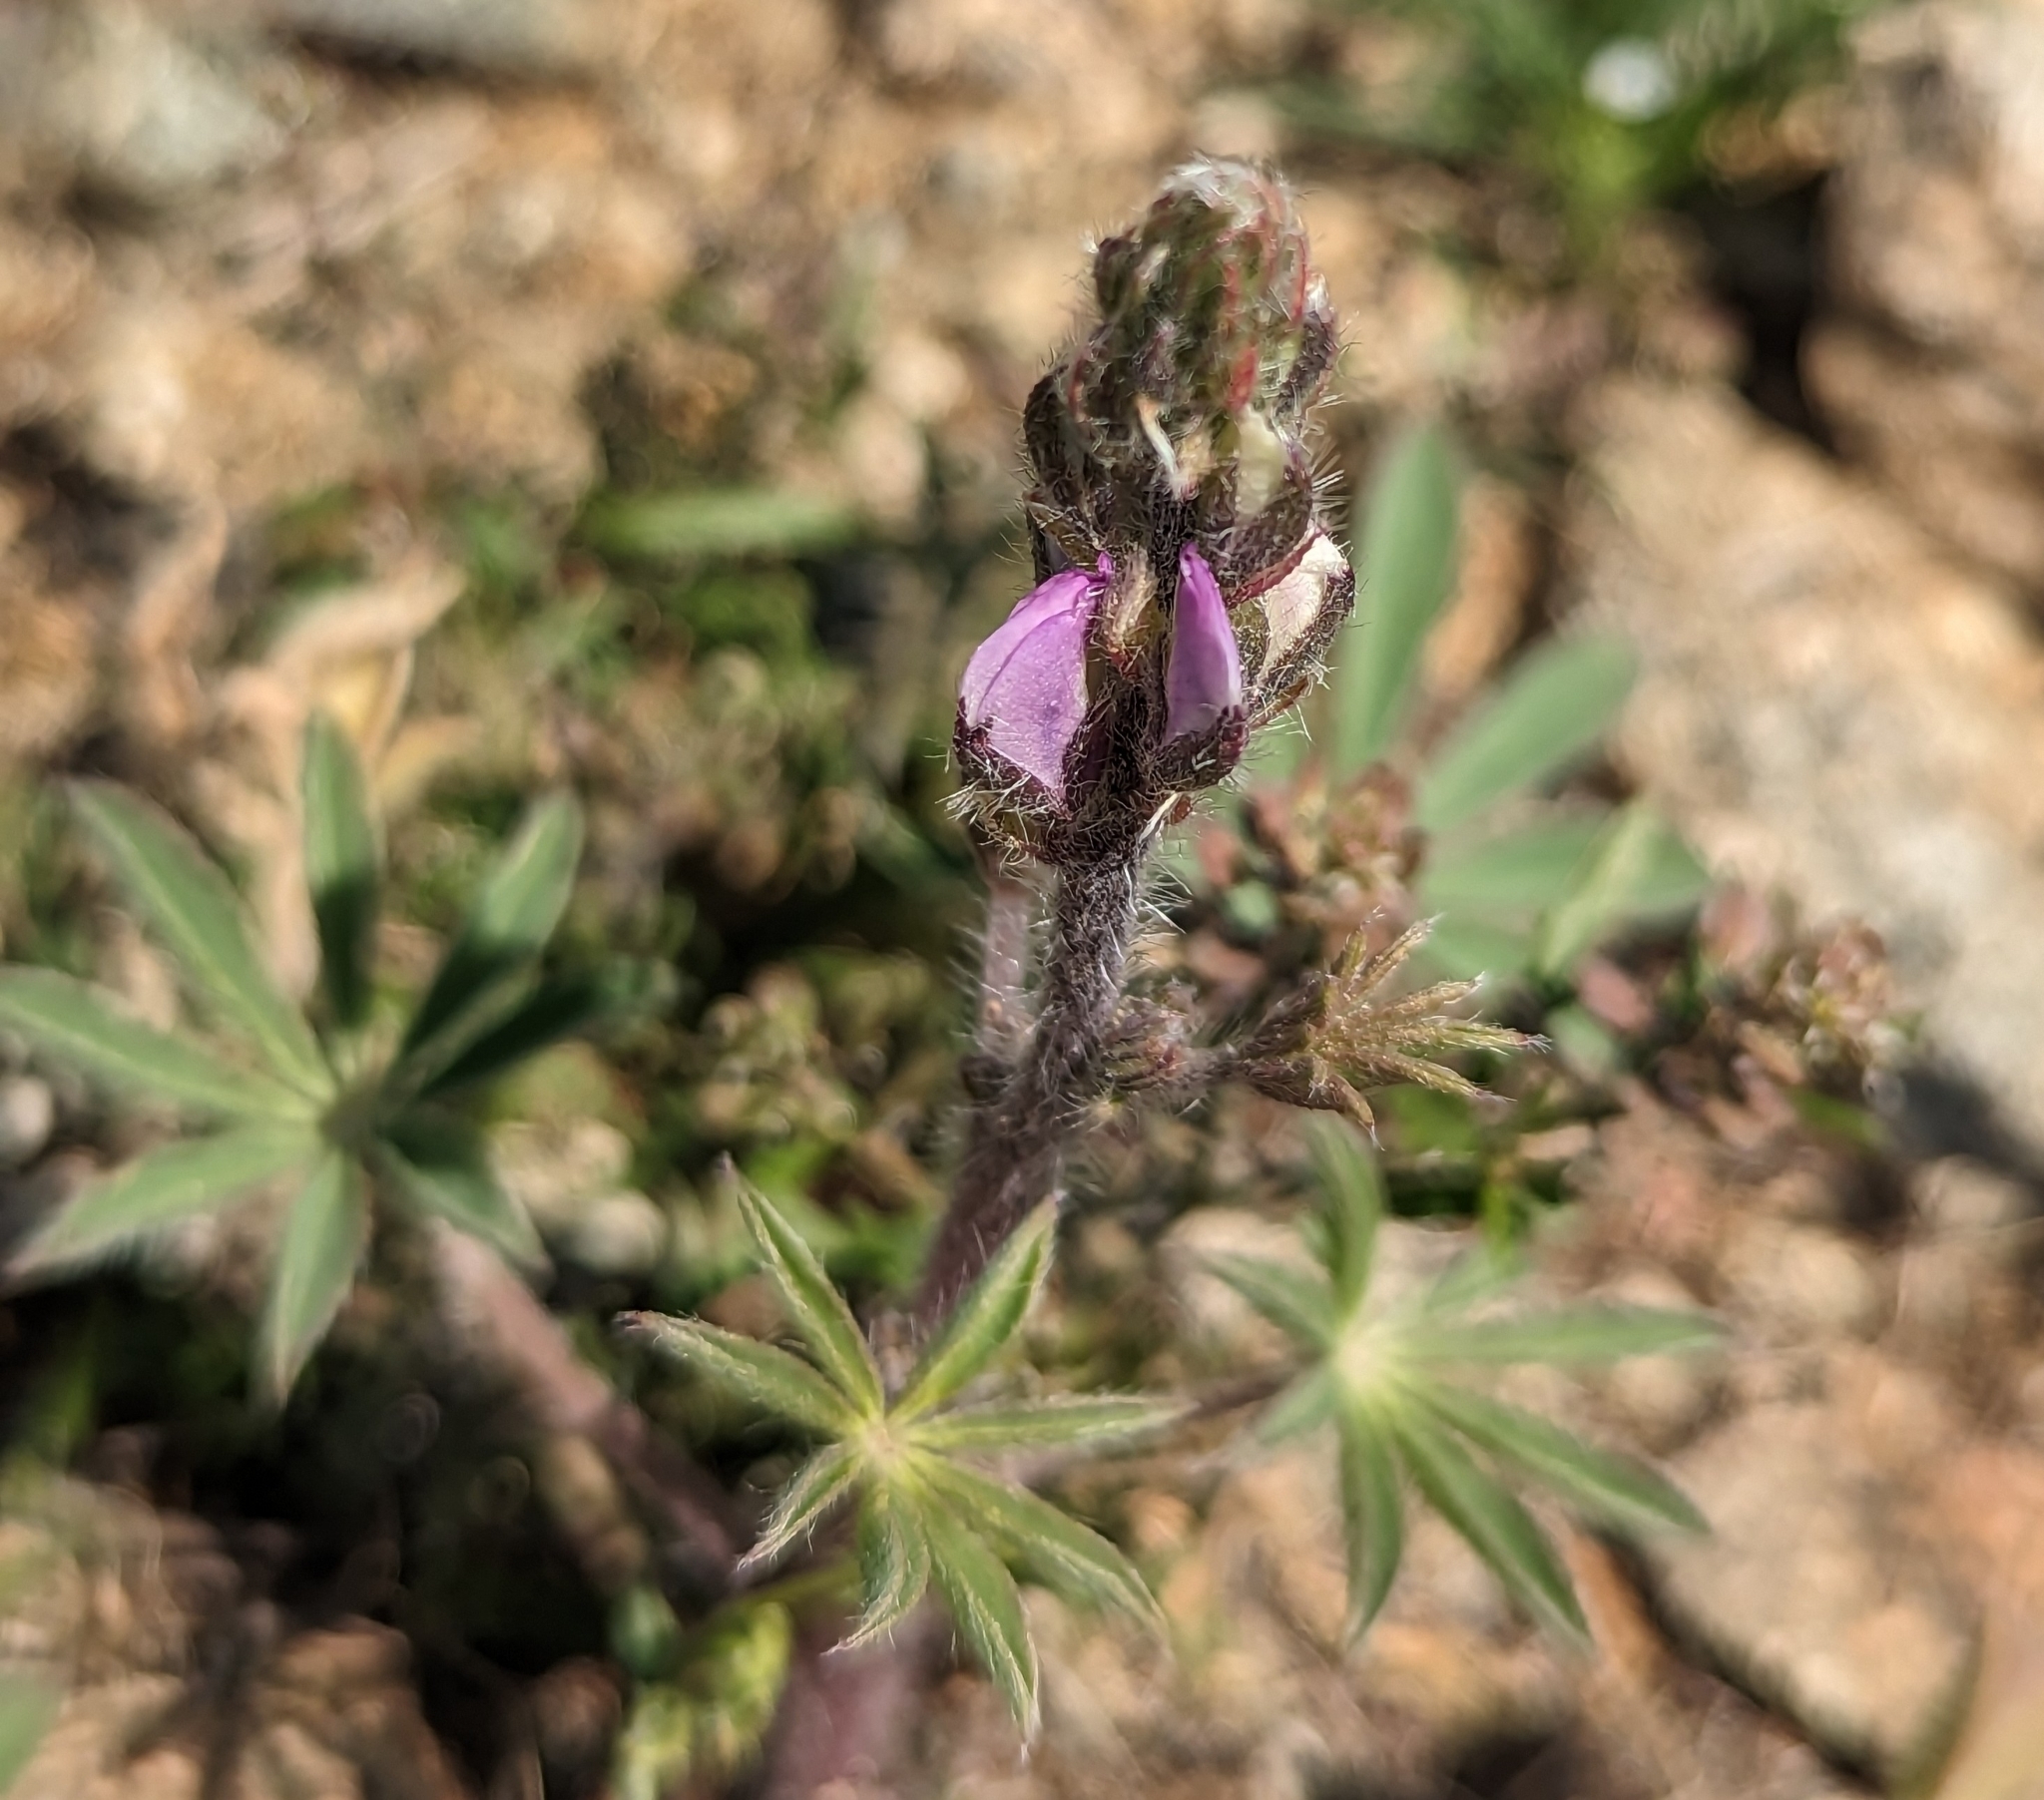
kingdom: Plantae
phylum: Tracheophyta
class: Magnoliopsida
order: Fabales
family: Fabaceae
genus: Lupinus
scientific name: Lupinus arizonicus
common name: Arizona lupine
